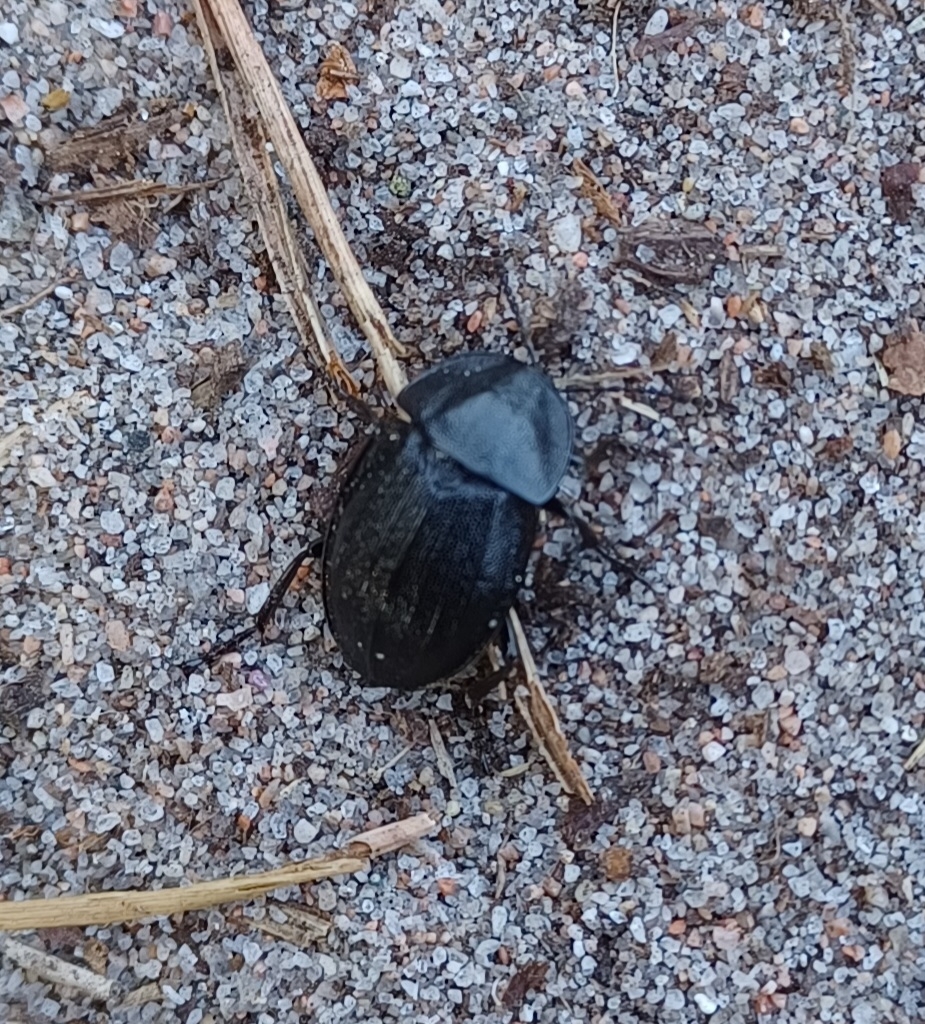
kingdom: Animalia
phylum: Arthropoda
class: Insecta
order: Coleoptera
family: Staphylinidae
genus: Silpha
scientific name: Silpha atrata
